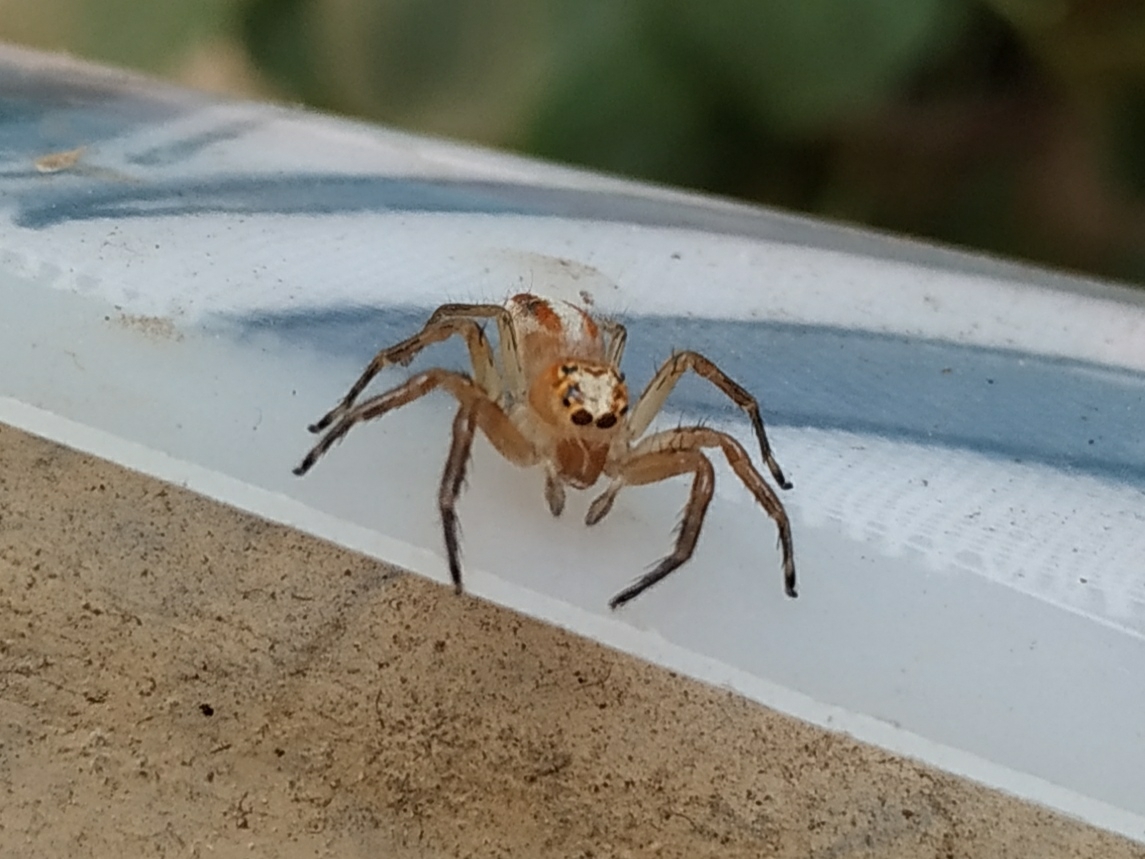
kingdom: Animalia
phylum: Arthropoda
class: Arachnida
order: Araneae
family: Salticidae
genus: Telamonia
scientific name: Telamonia dimidiata
